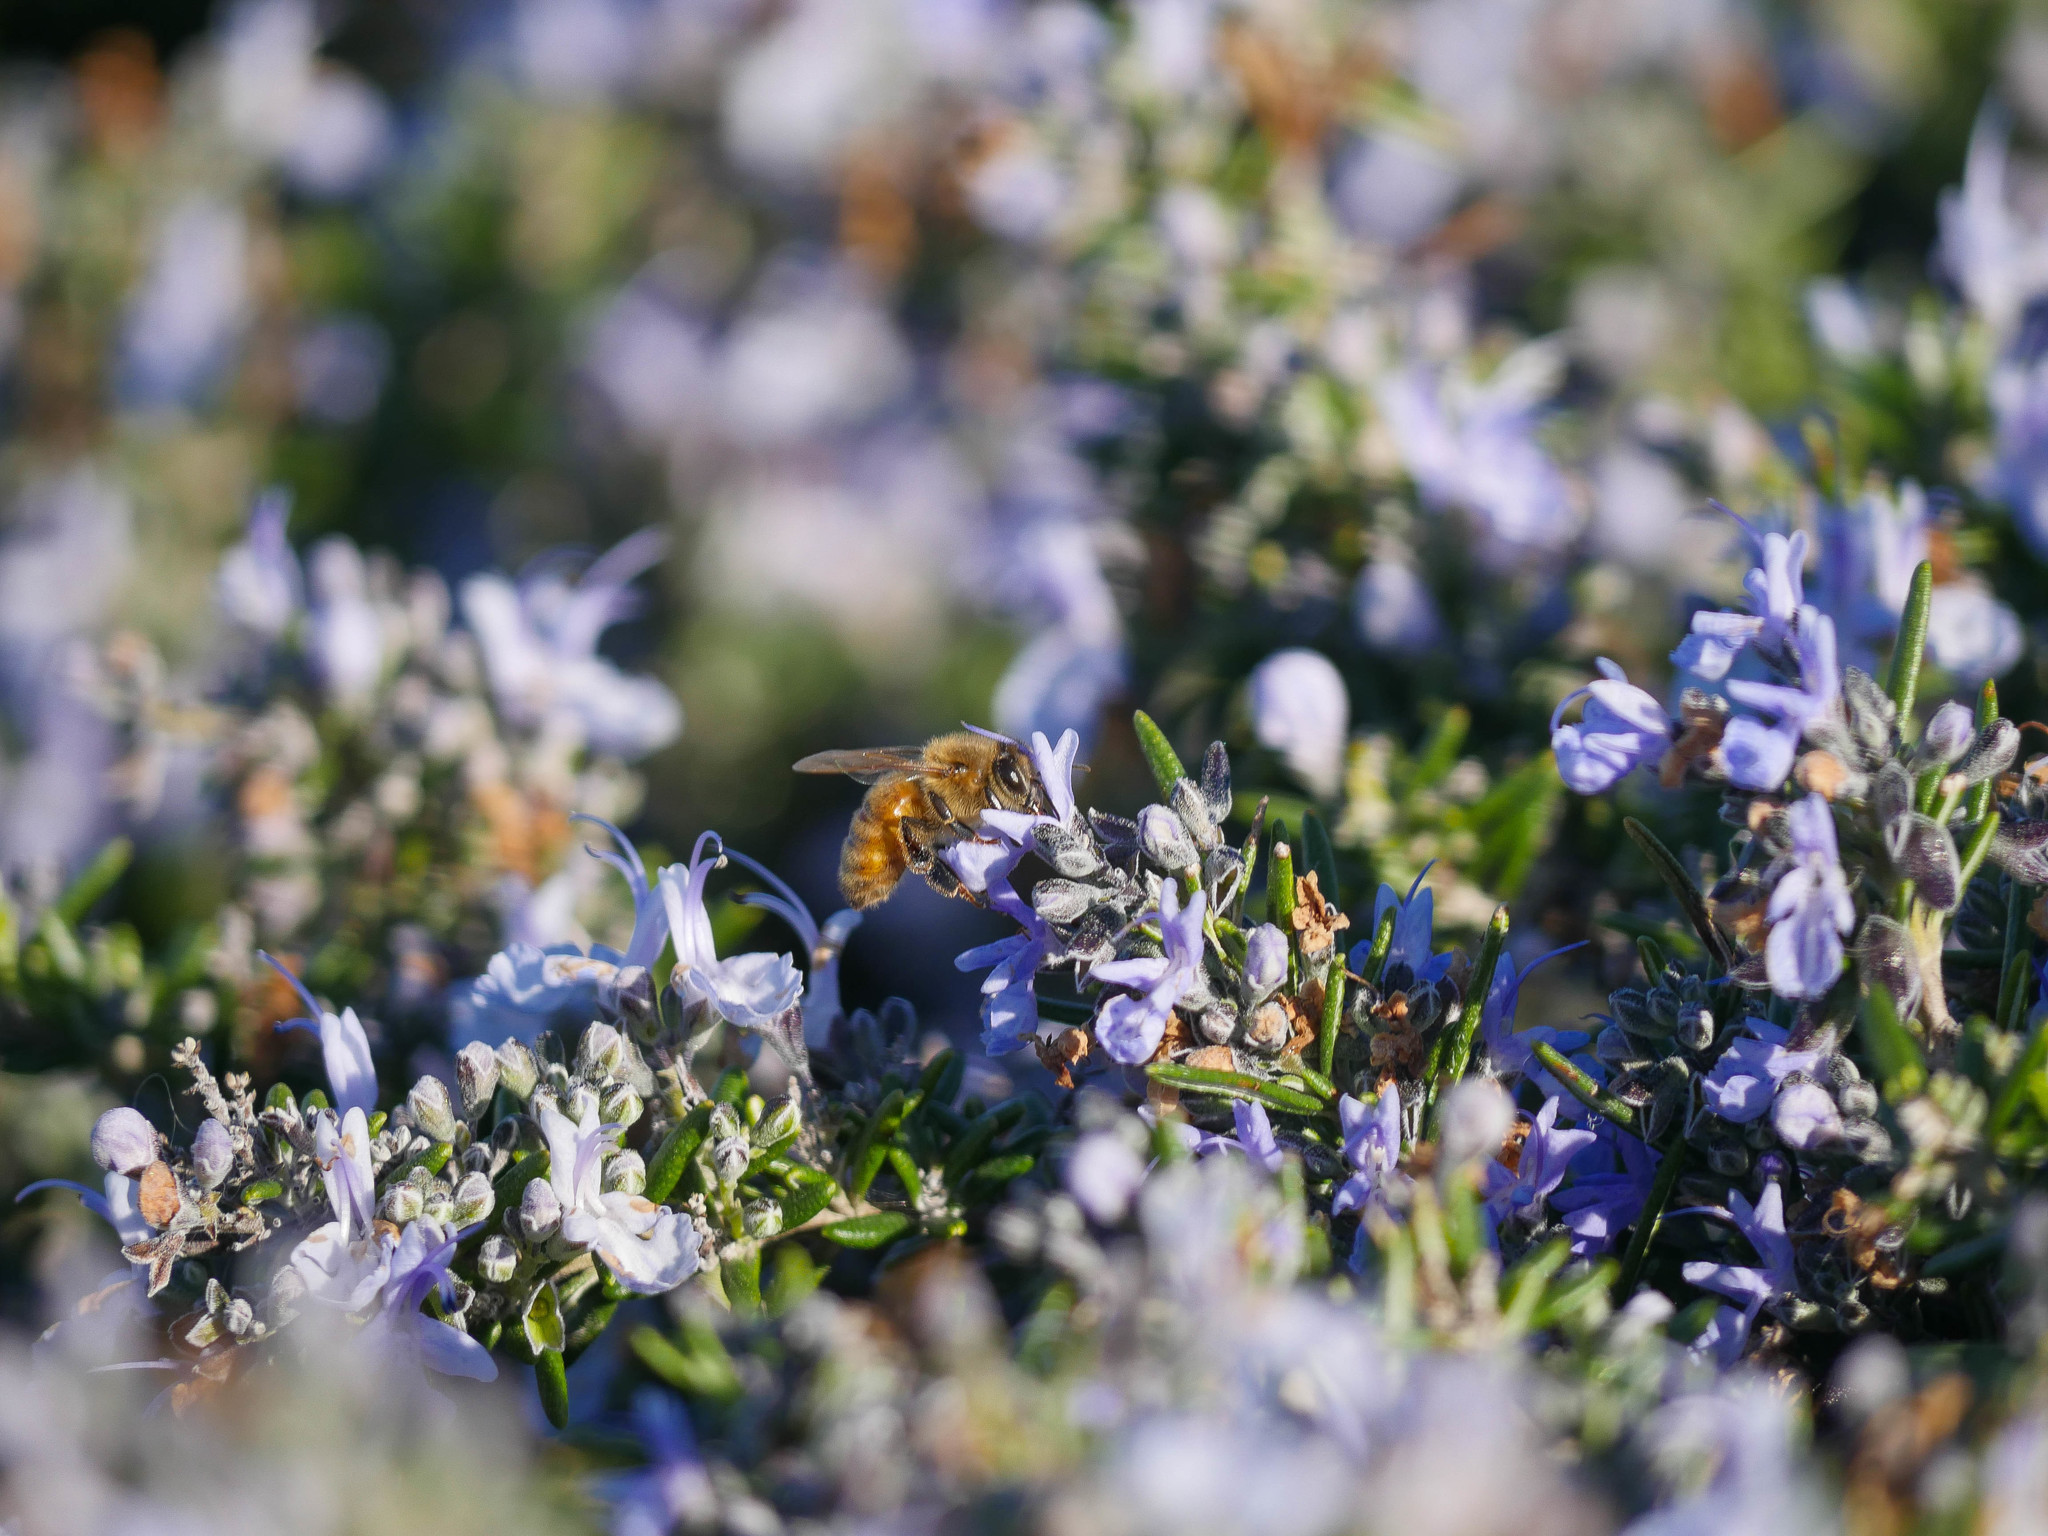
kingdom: Animalia
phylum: Arthropoda
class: Insecta
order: Hymenoptera
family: Apidae
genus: Apis
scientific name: Apis mellifera
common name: Honey bee
